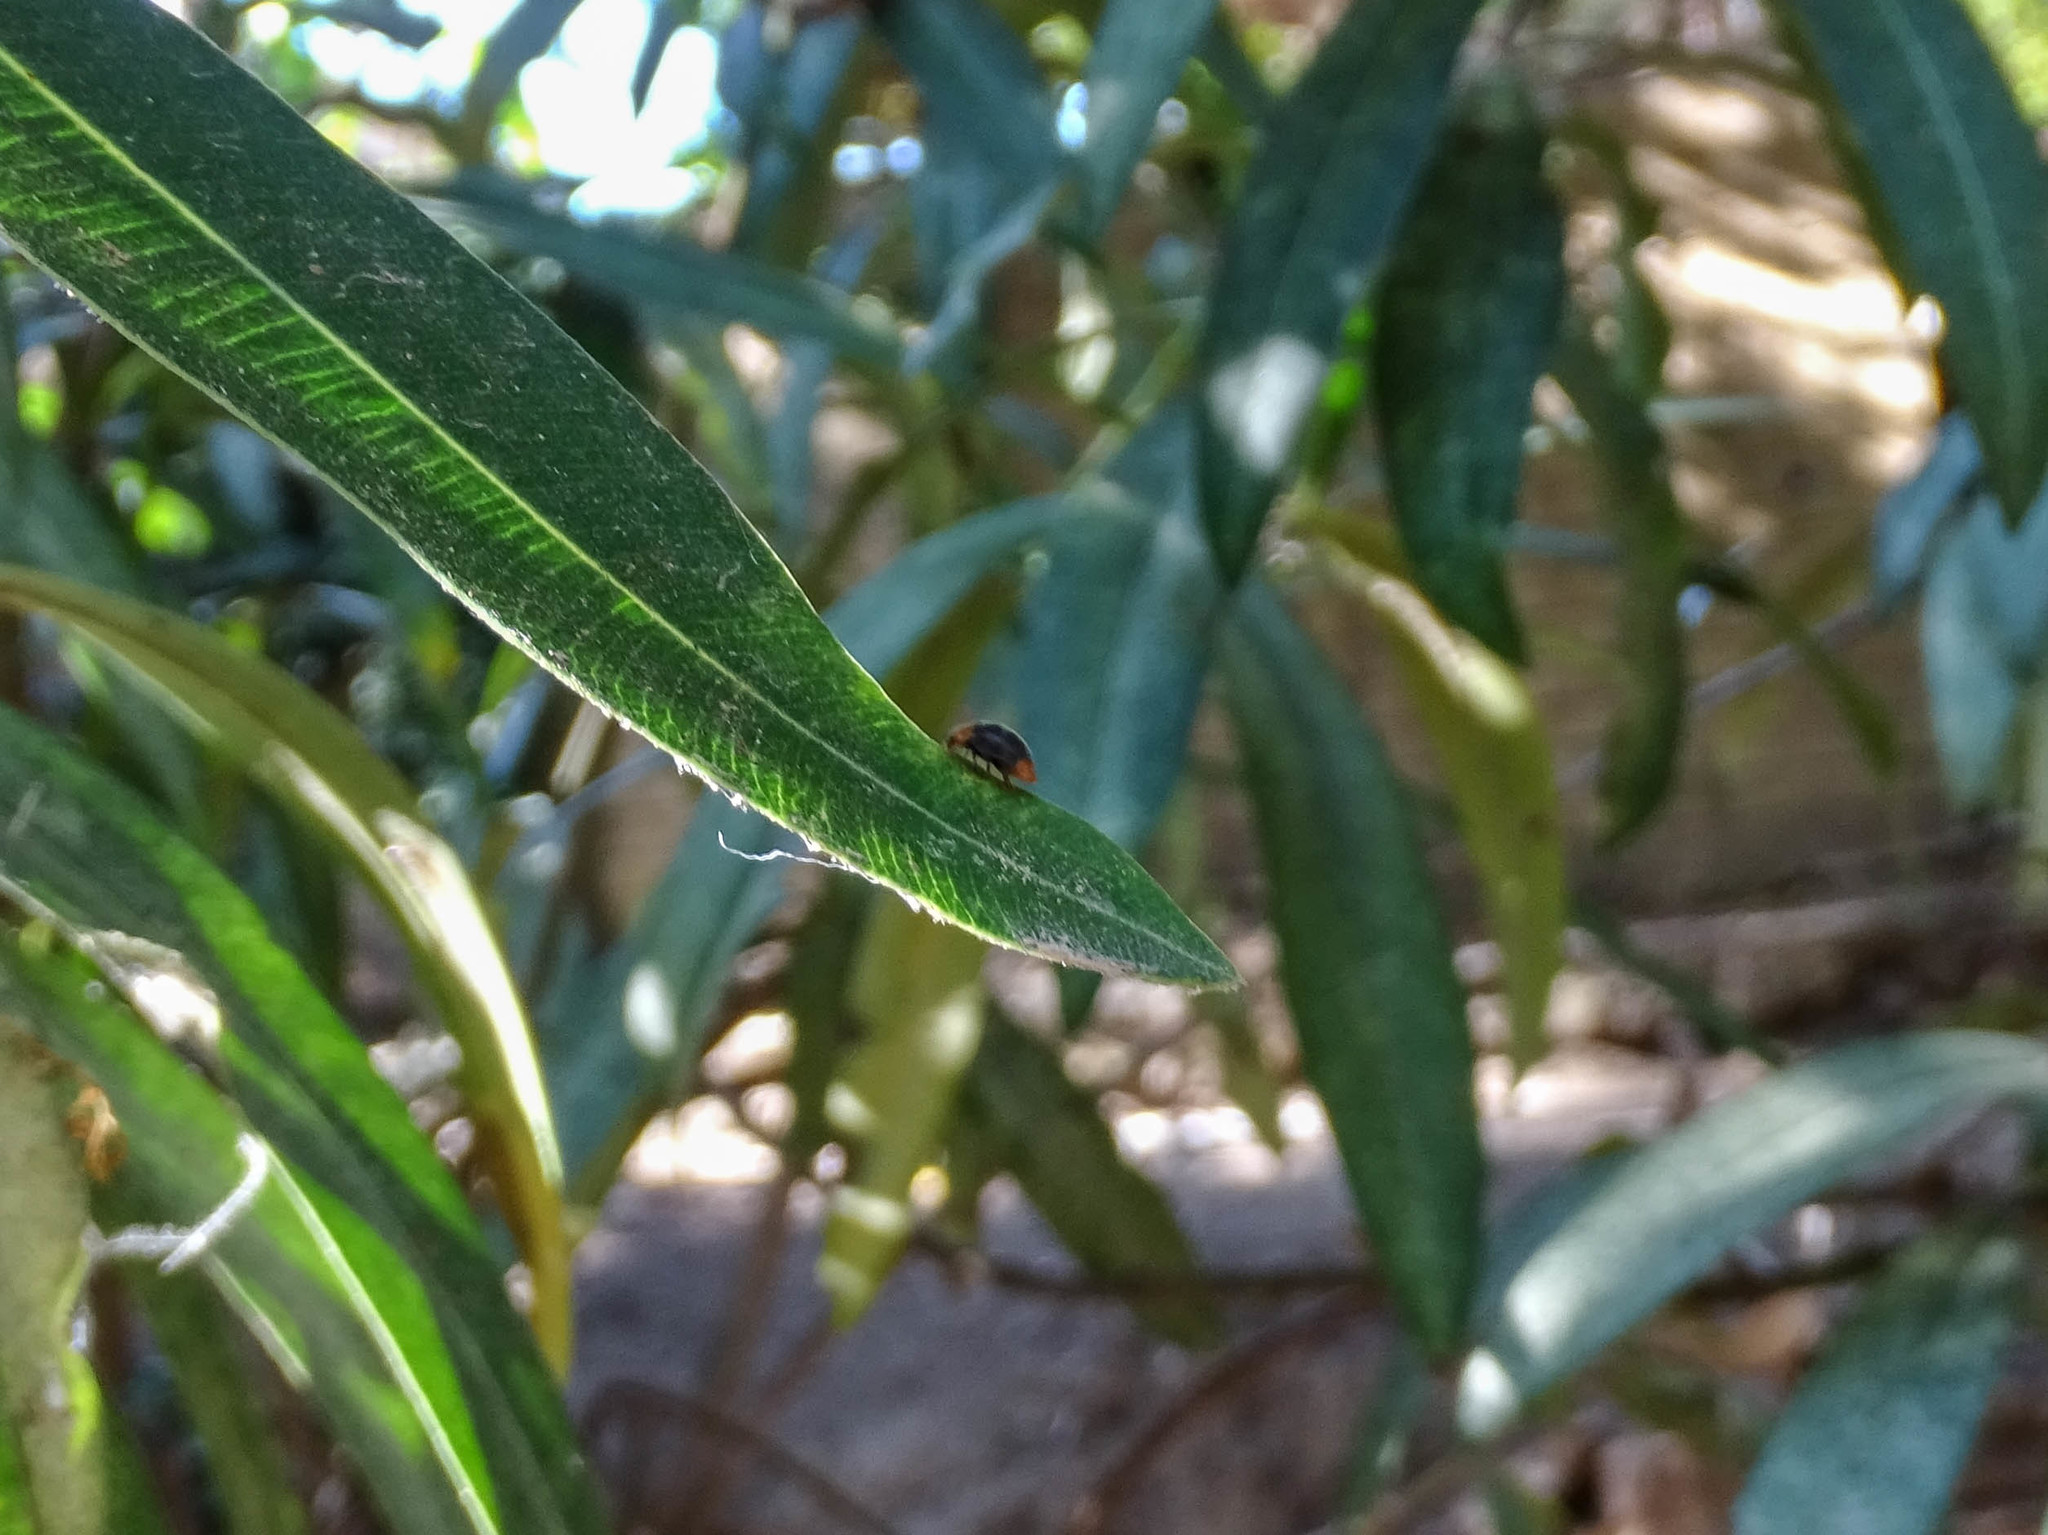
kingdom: Animalia
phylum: Arthropoda
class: Insecta
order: Coleoptera
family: Coccinellidae
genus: Cryptolaemus
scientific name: Cryptolaemus montrouzieri
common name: Mealybug destroyer
